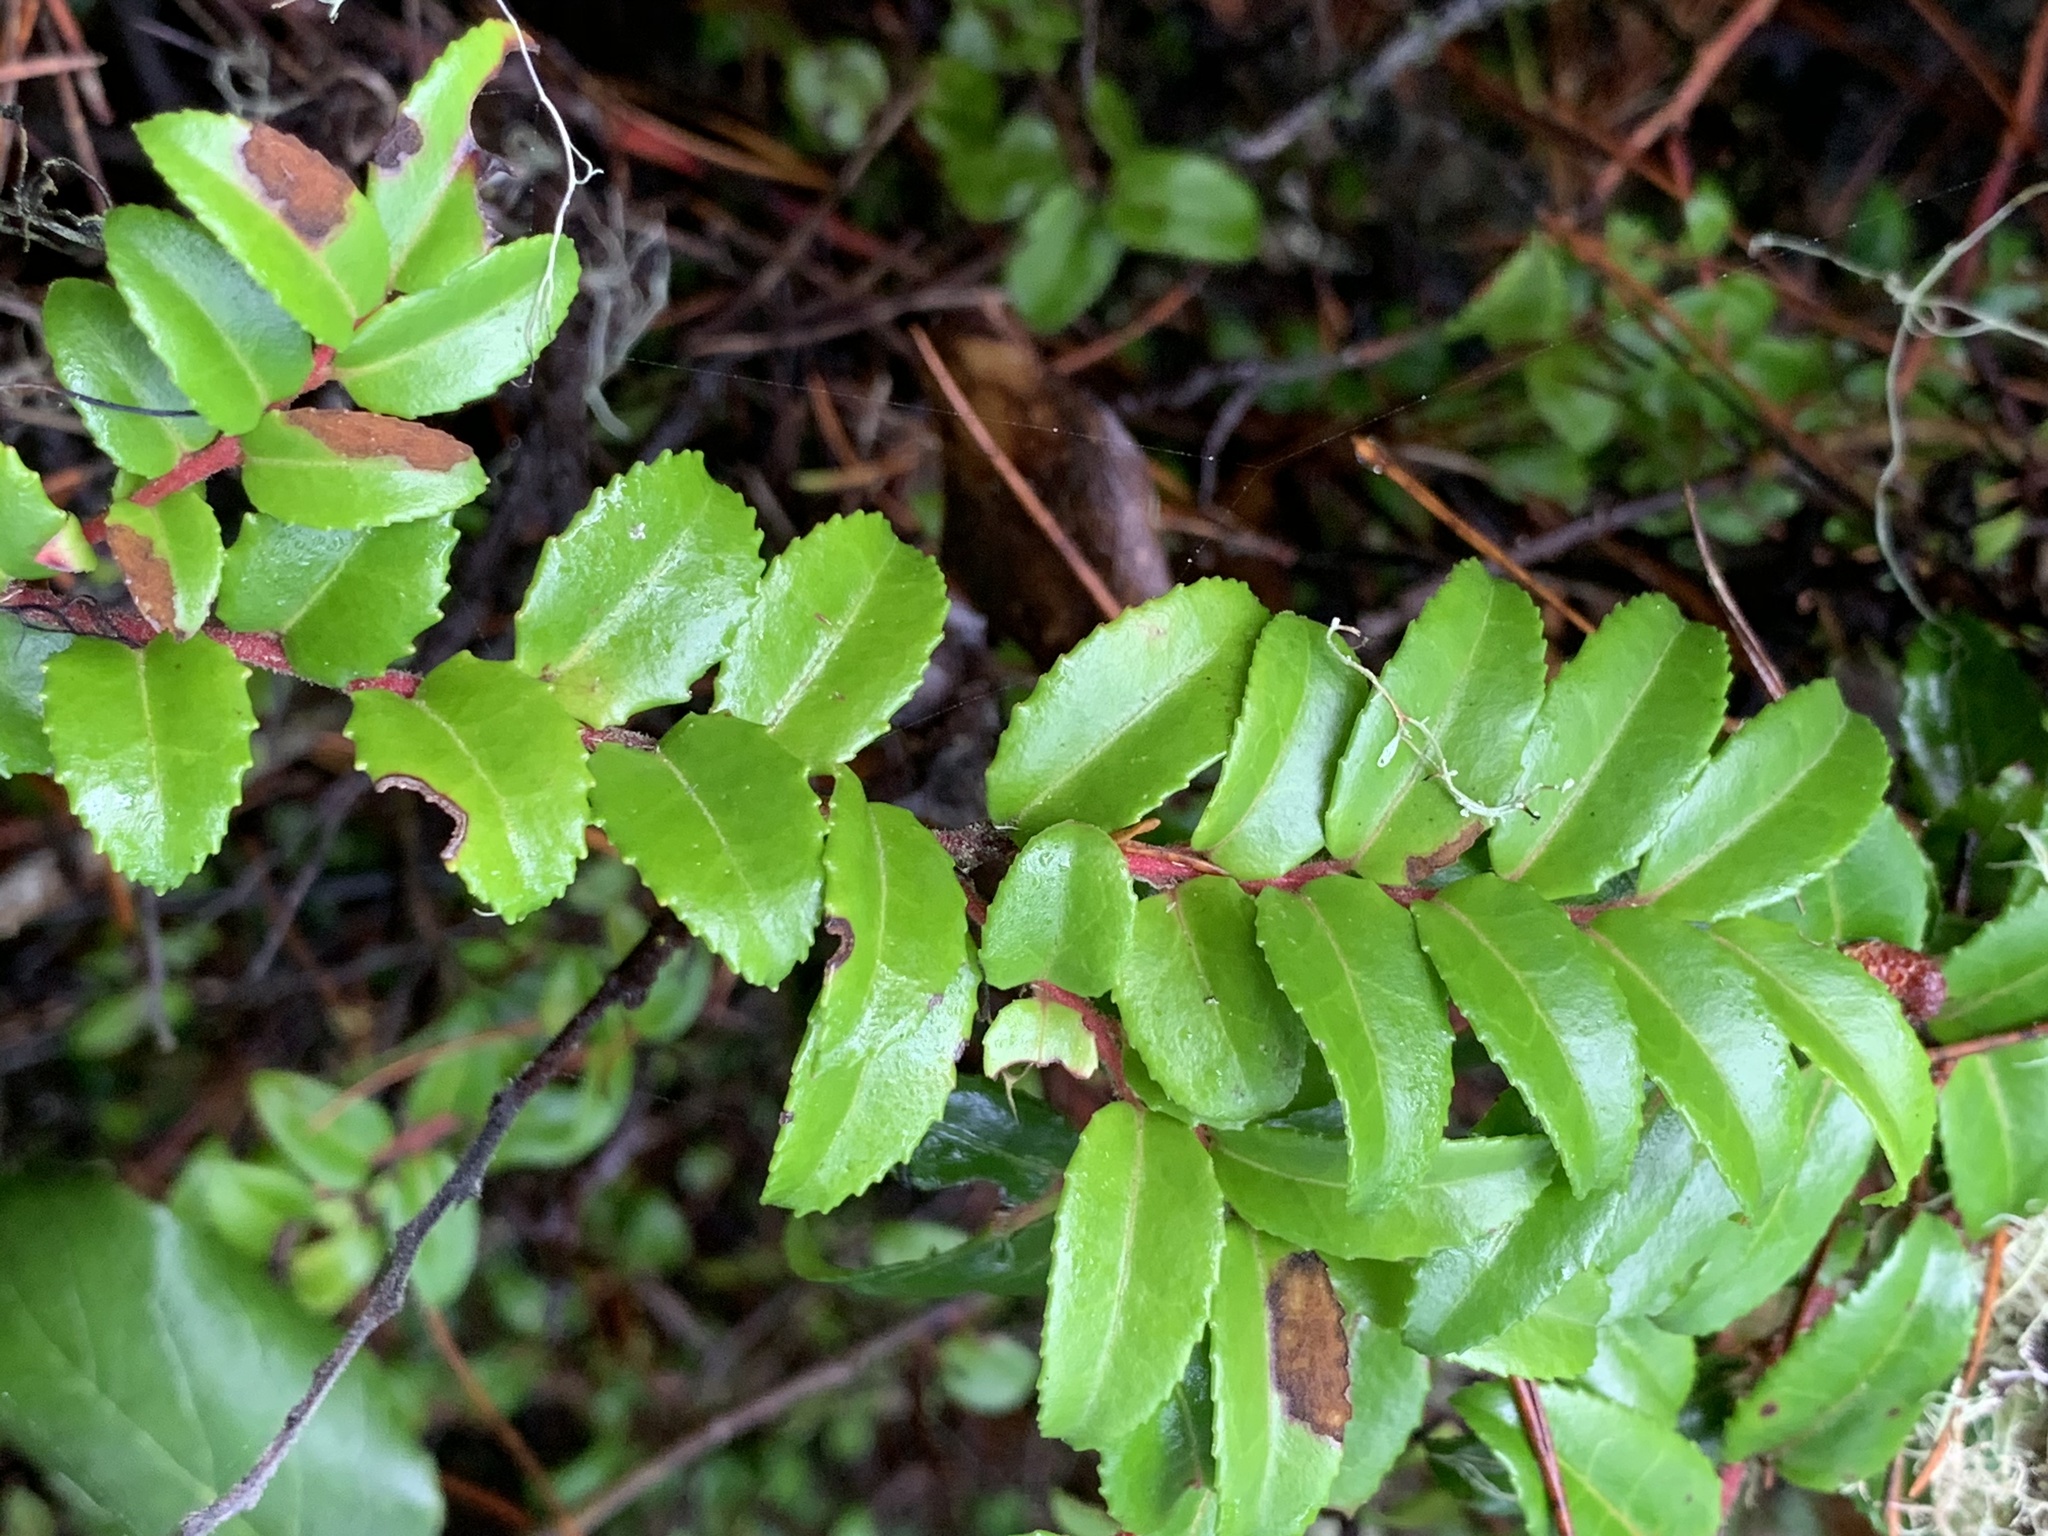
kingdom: Plantae
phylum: Tracheophyta
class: Magnoliopsida
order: Ericales
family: Ericaceae
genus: Vaccinium
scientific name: Vaccinium ovatum
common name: California-huckleberry
